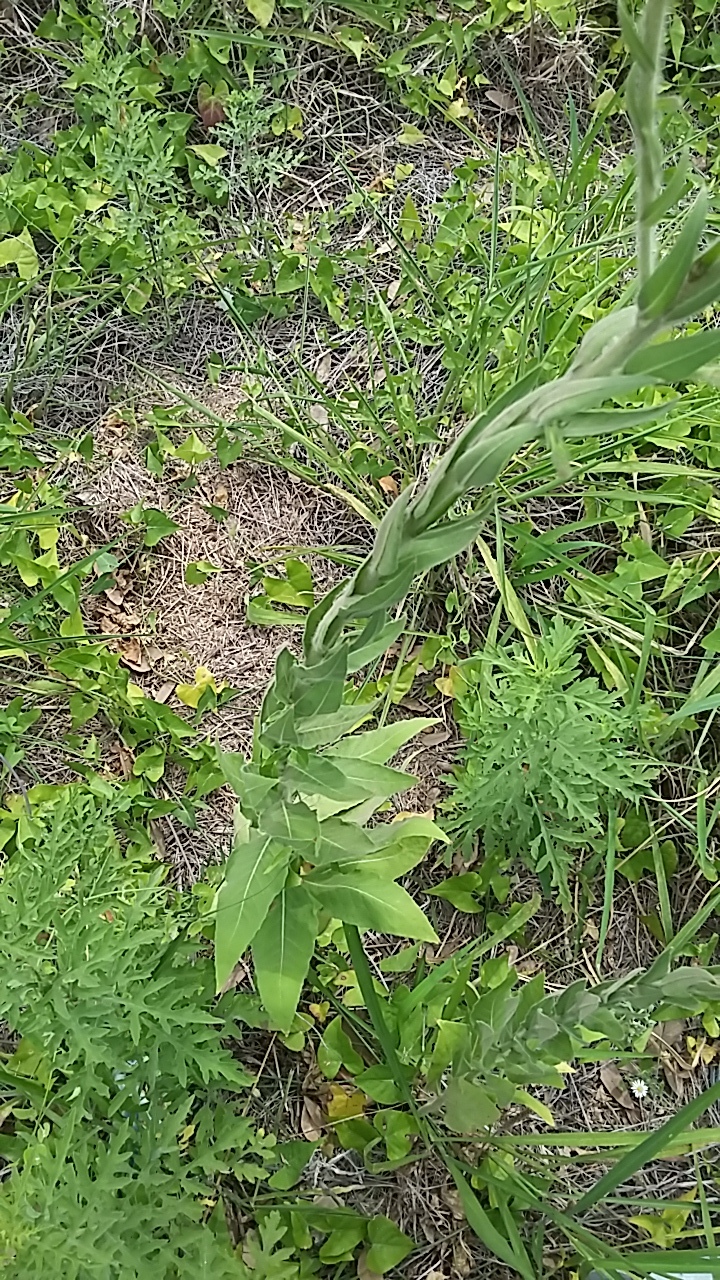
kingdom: Plantae
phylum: Tracheophyta
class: Magnoliopsida
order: Myrtales
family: Onagraceae
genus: Oenothera
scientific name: Oenothera curtiflora
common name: Velvetweed
